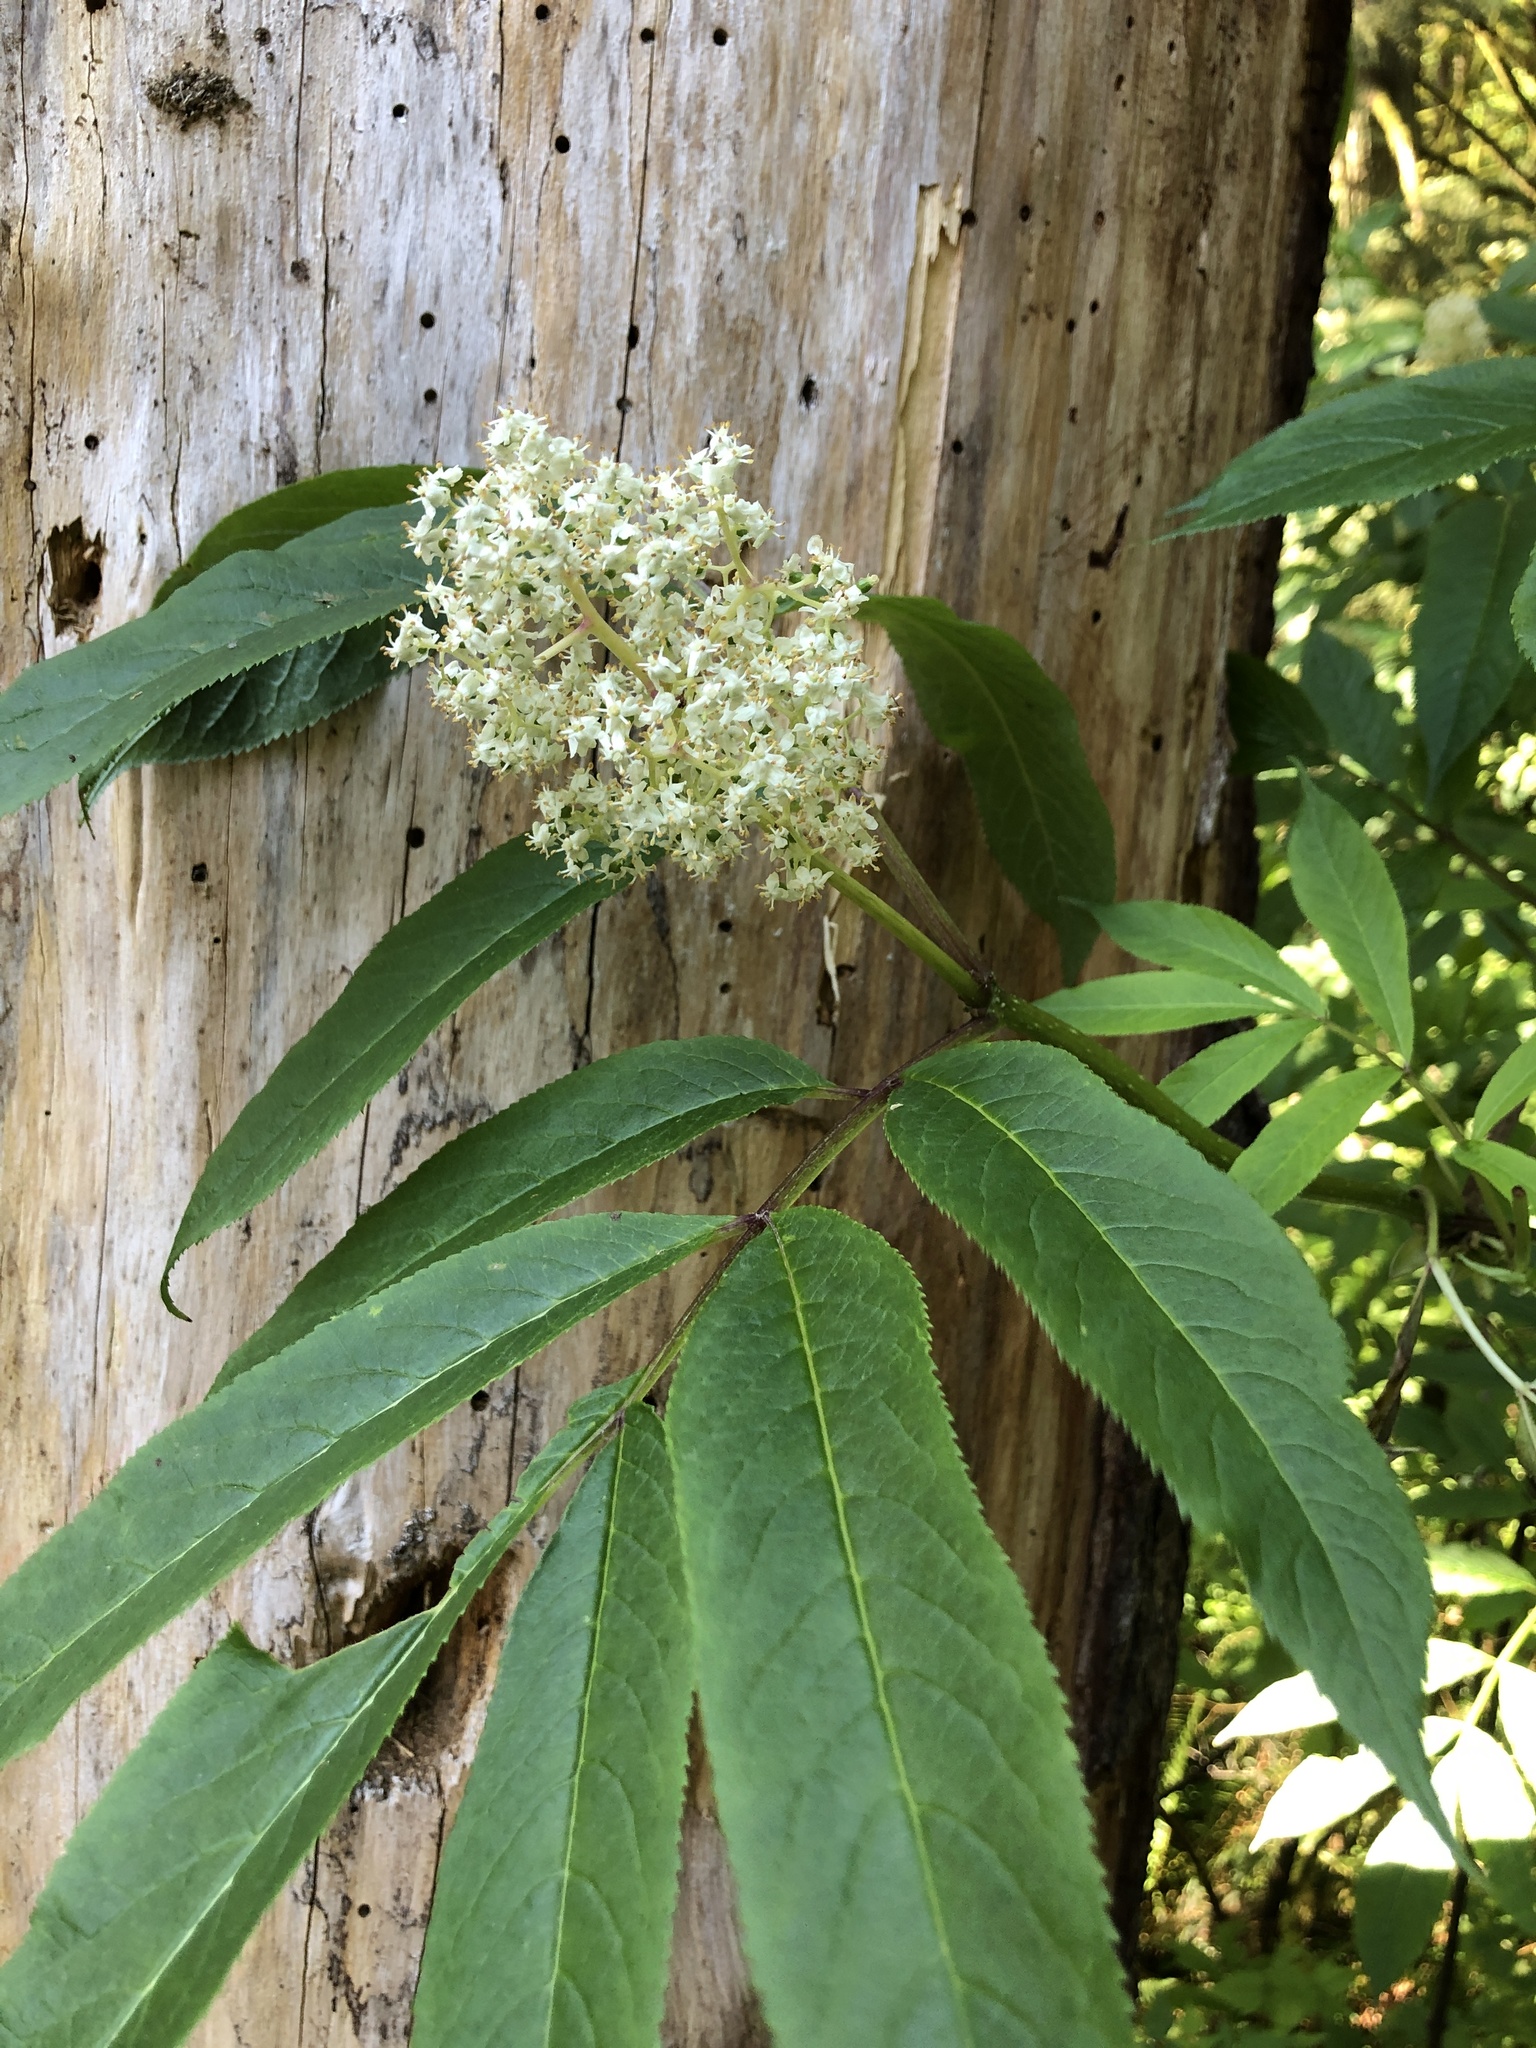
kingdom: Plantae
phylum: Tracheophyta
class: Magnoliopsida
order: Dipsacales
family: Viburnaceae
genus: Sambucus
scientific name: Sambucus racemosa
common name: Red-berried elder
